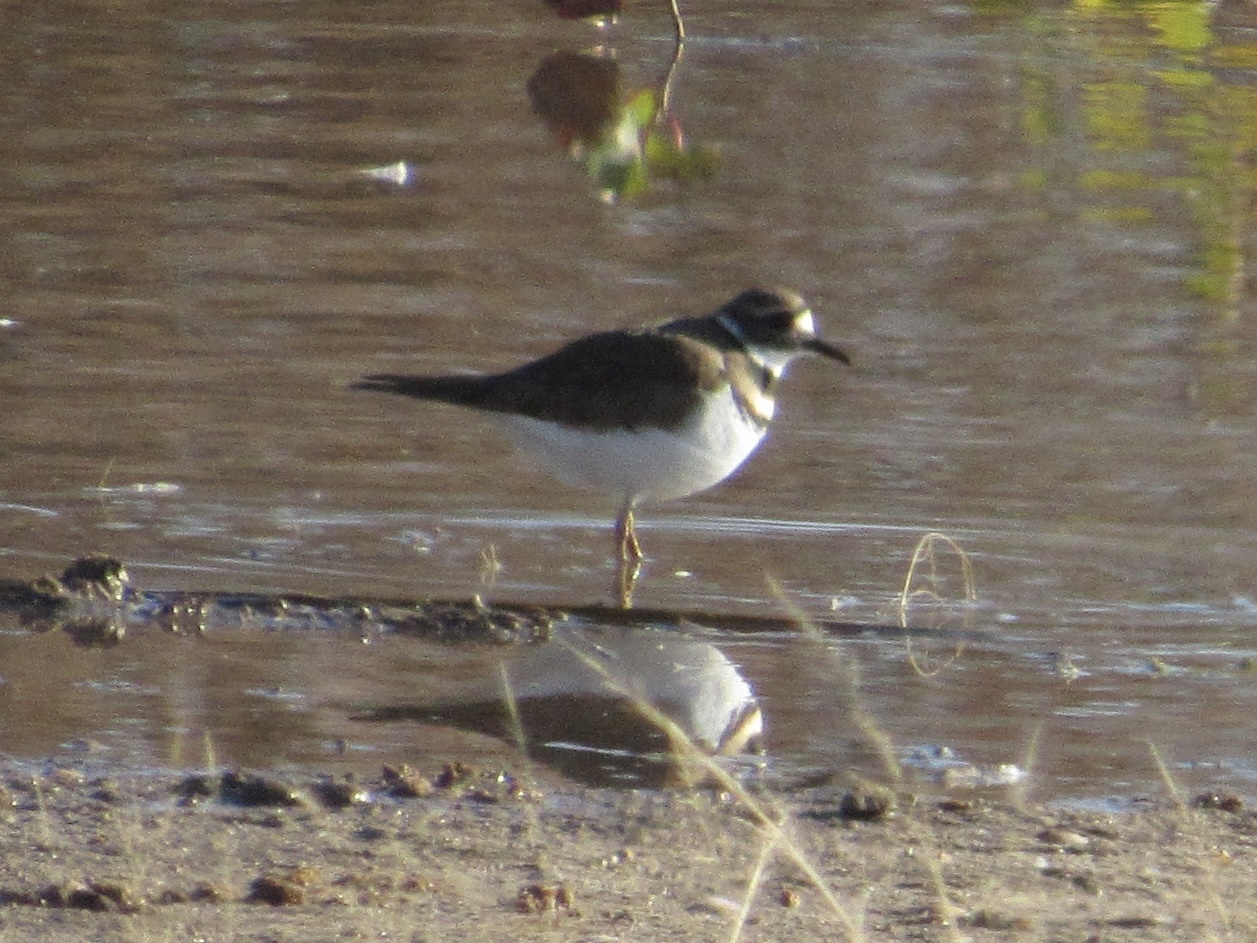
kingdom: Animalia
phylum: Chordata
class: Aves
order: Charadriiformes
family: Charadriidae
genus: Charadrius
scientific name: Charadrius vociferus
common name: Killdeer
